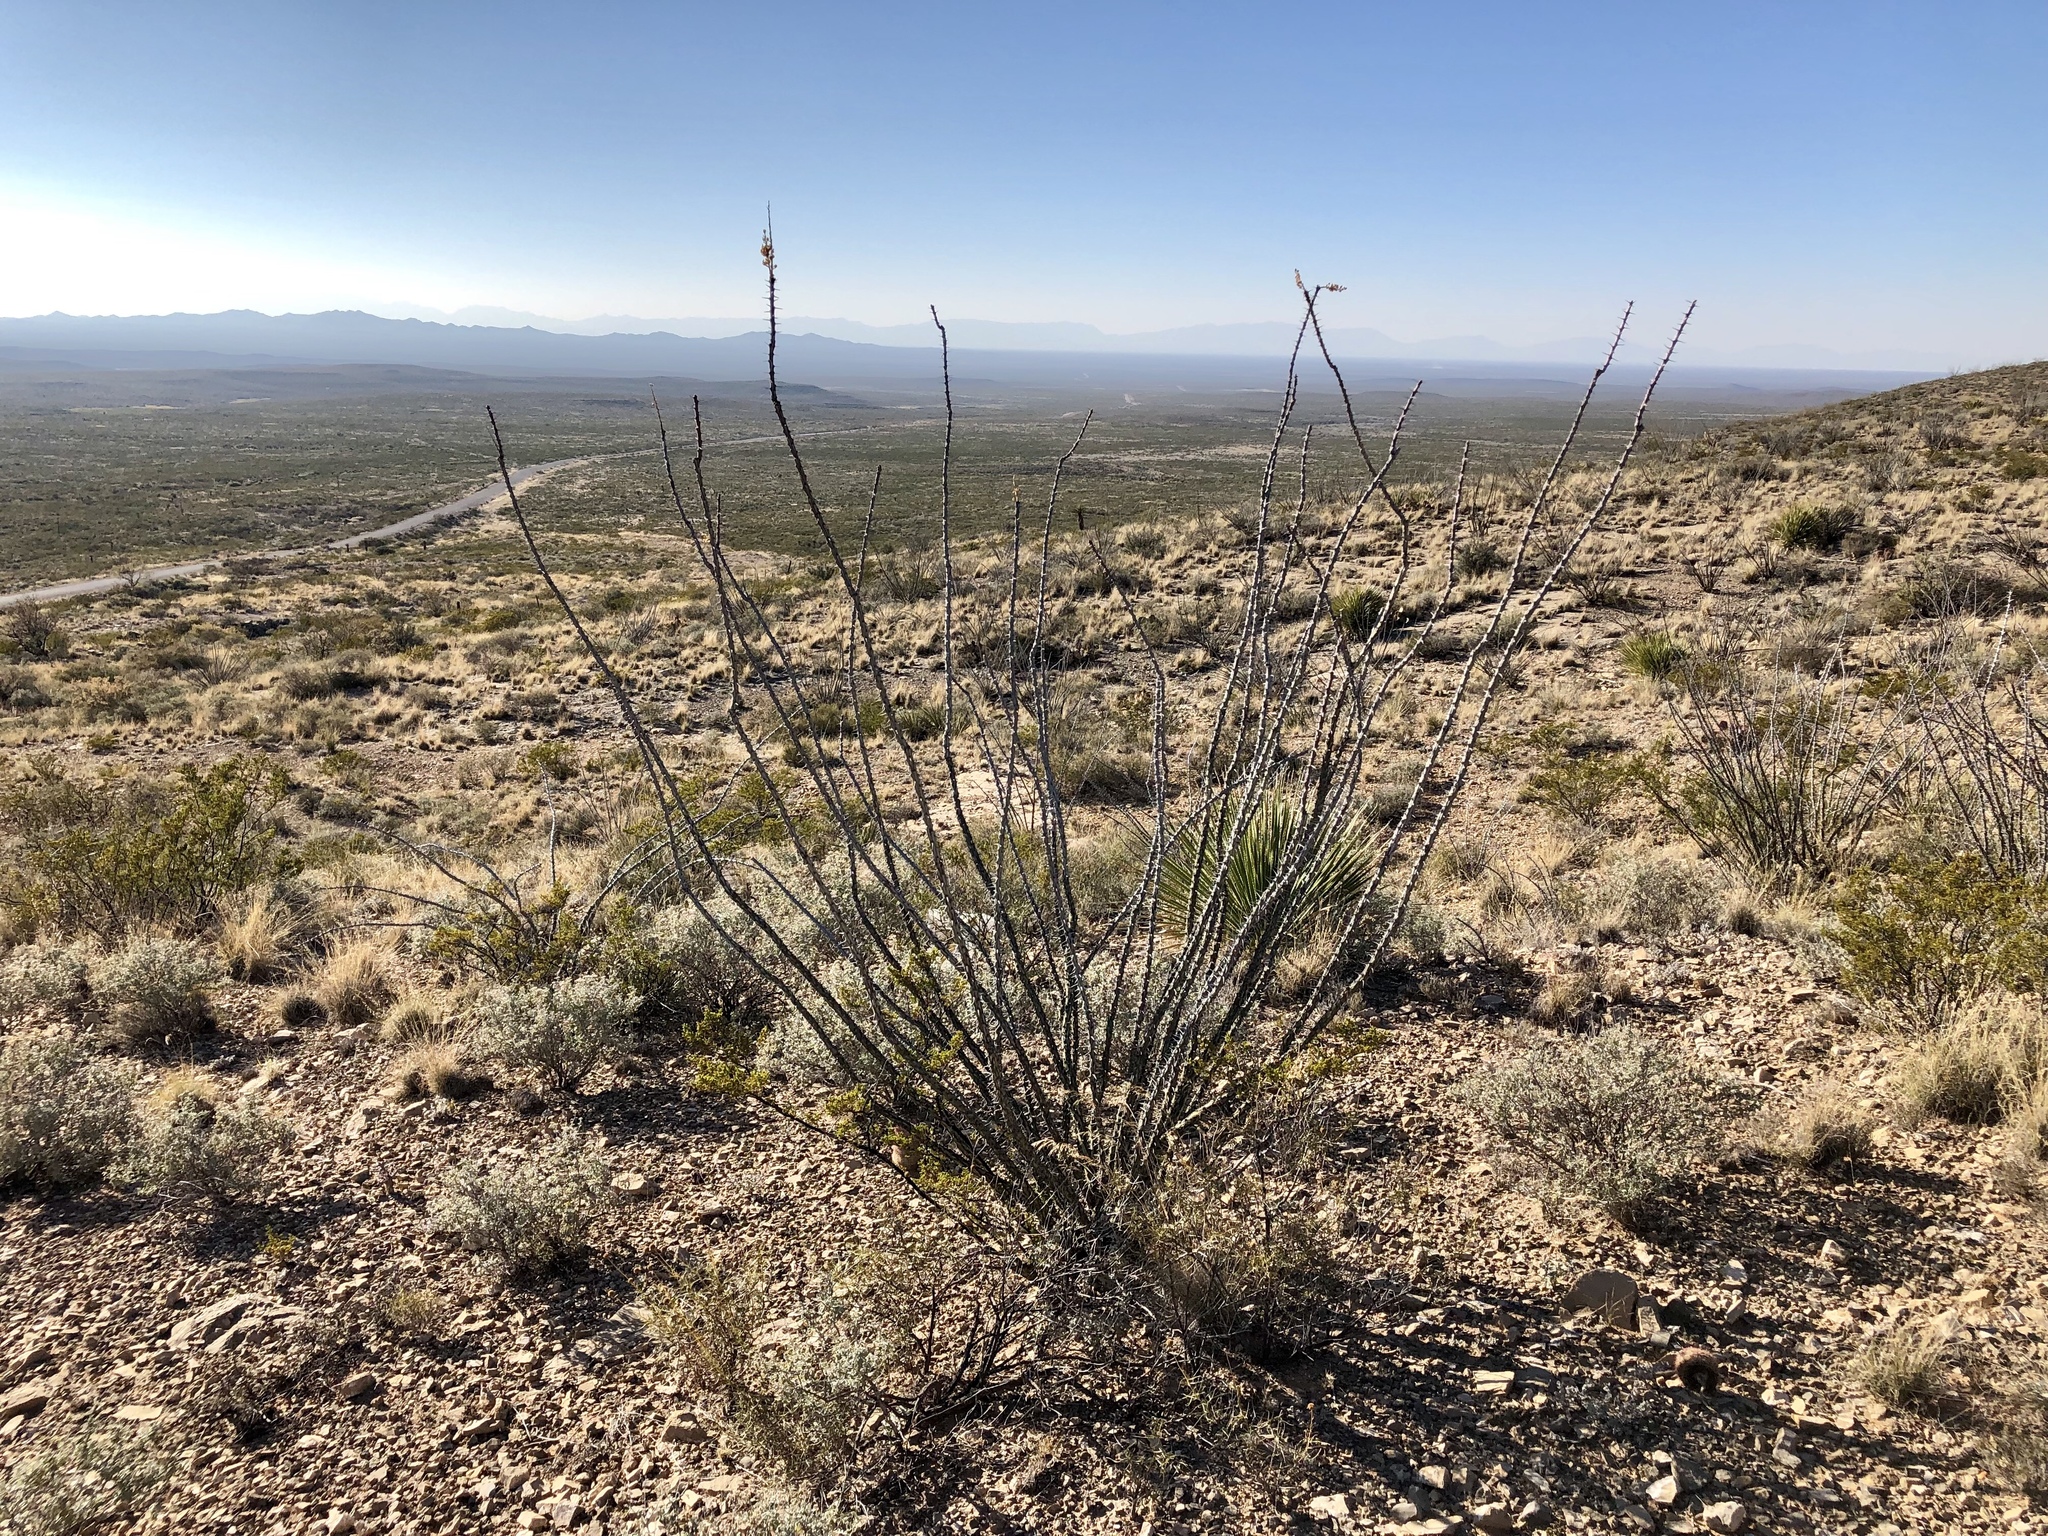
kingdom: Plantae
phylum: Tracheophyta
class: Magnoliopsida
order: Ericales
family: Fouquieriaceae
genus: Fouquieria
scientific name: Fouquieria splendens
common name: Vine-cactus
